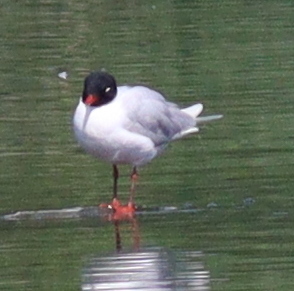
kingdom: Animalia
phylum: Chordata
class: Aves
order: Charadriiformes
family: Laridae
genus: Ichthyaetus
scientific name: Ichthyaetus melanocephalus
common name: Mediterranean gull
